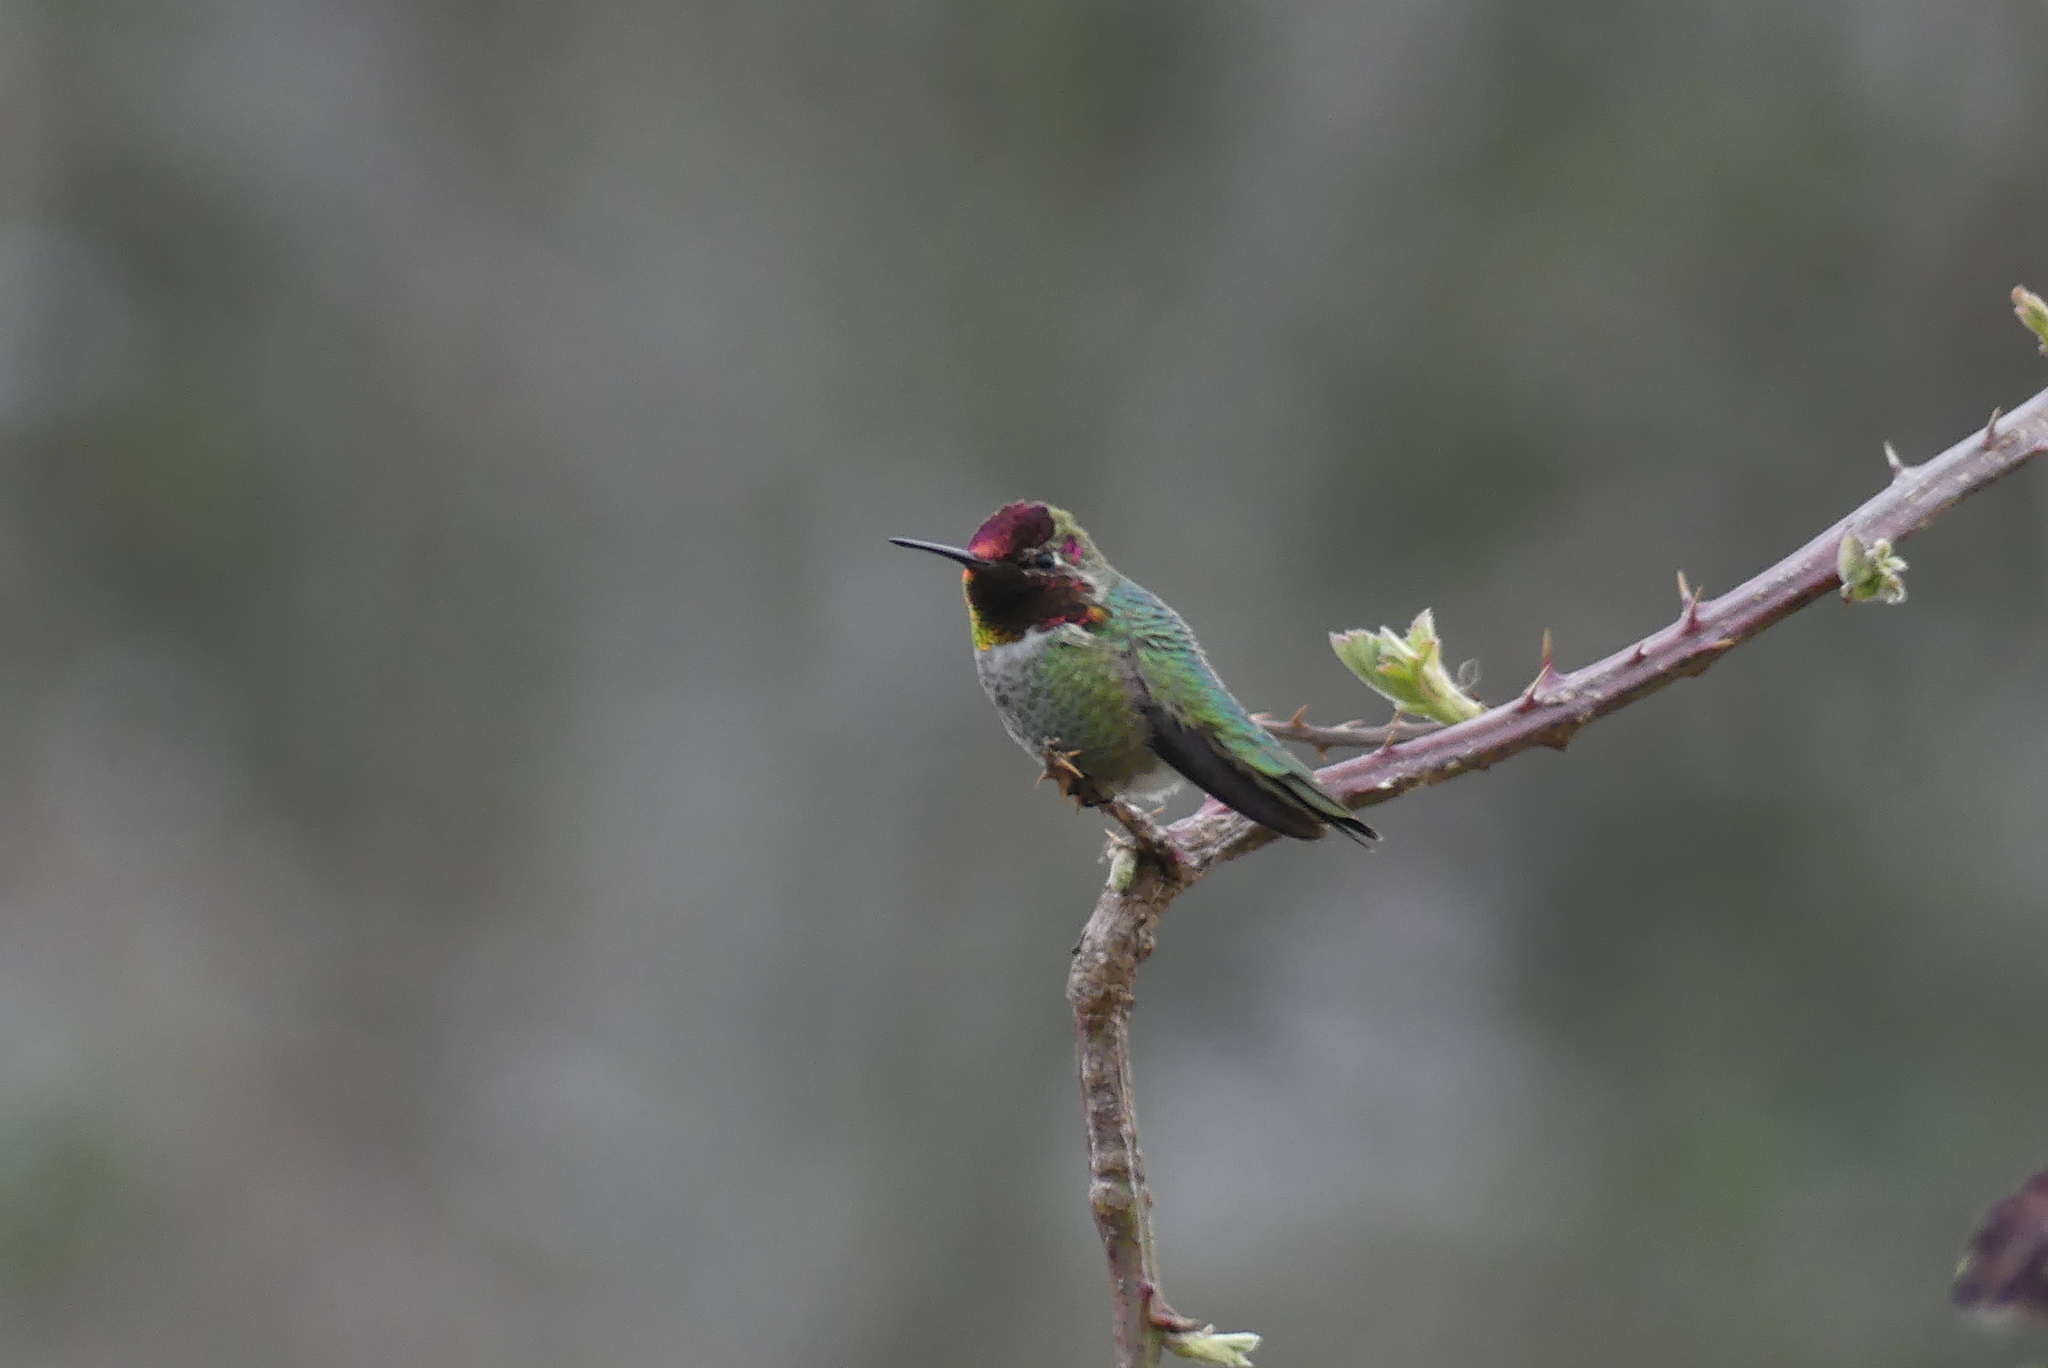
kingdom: Animalia
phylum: Chordata
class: Aves
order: Apodiformes
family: Trochilidae
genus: Calypte
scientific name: Calypte anna
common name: Anna's hummingbird
